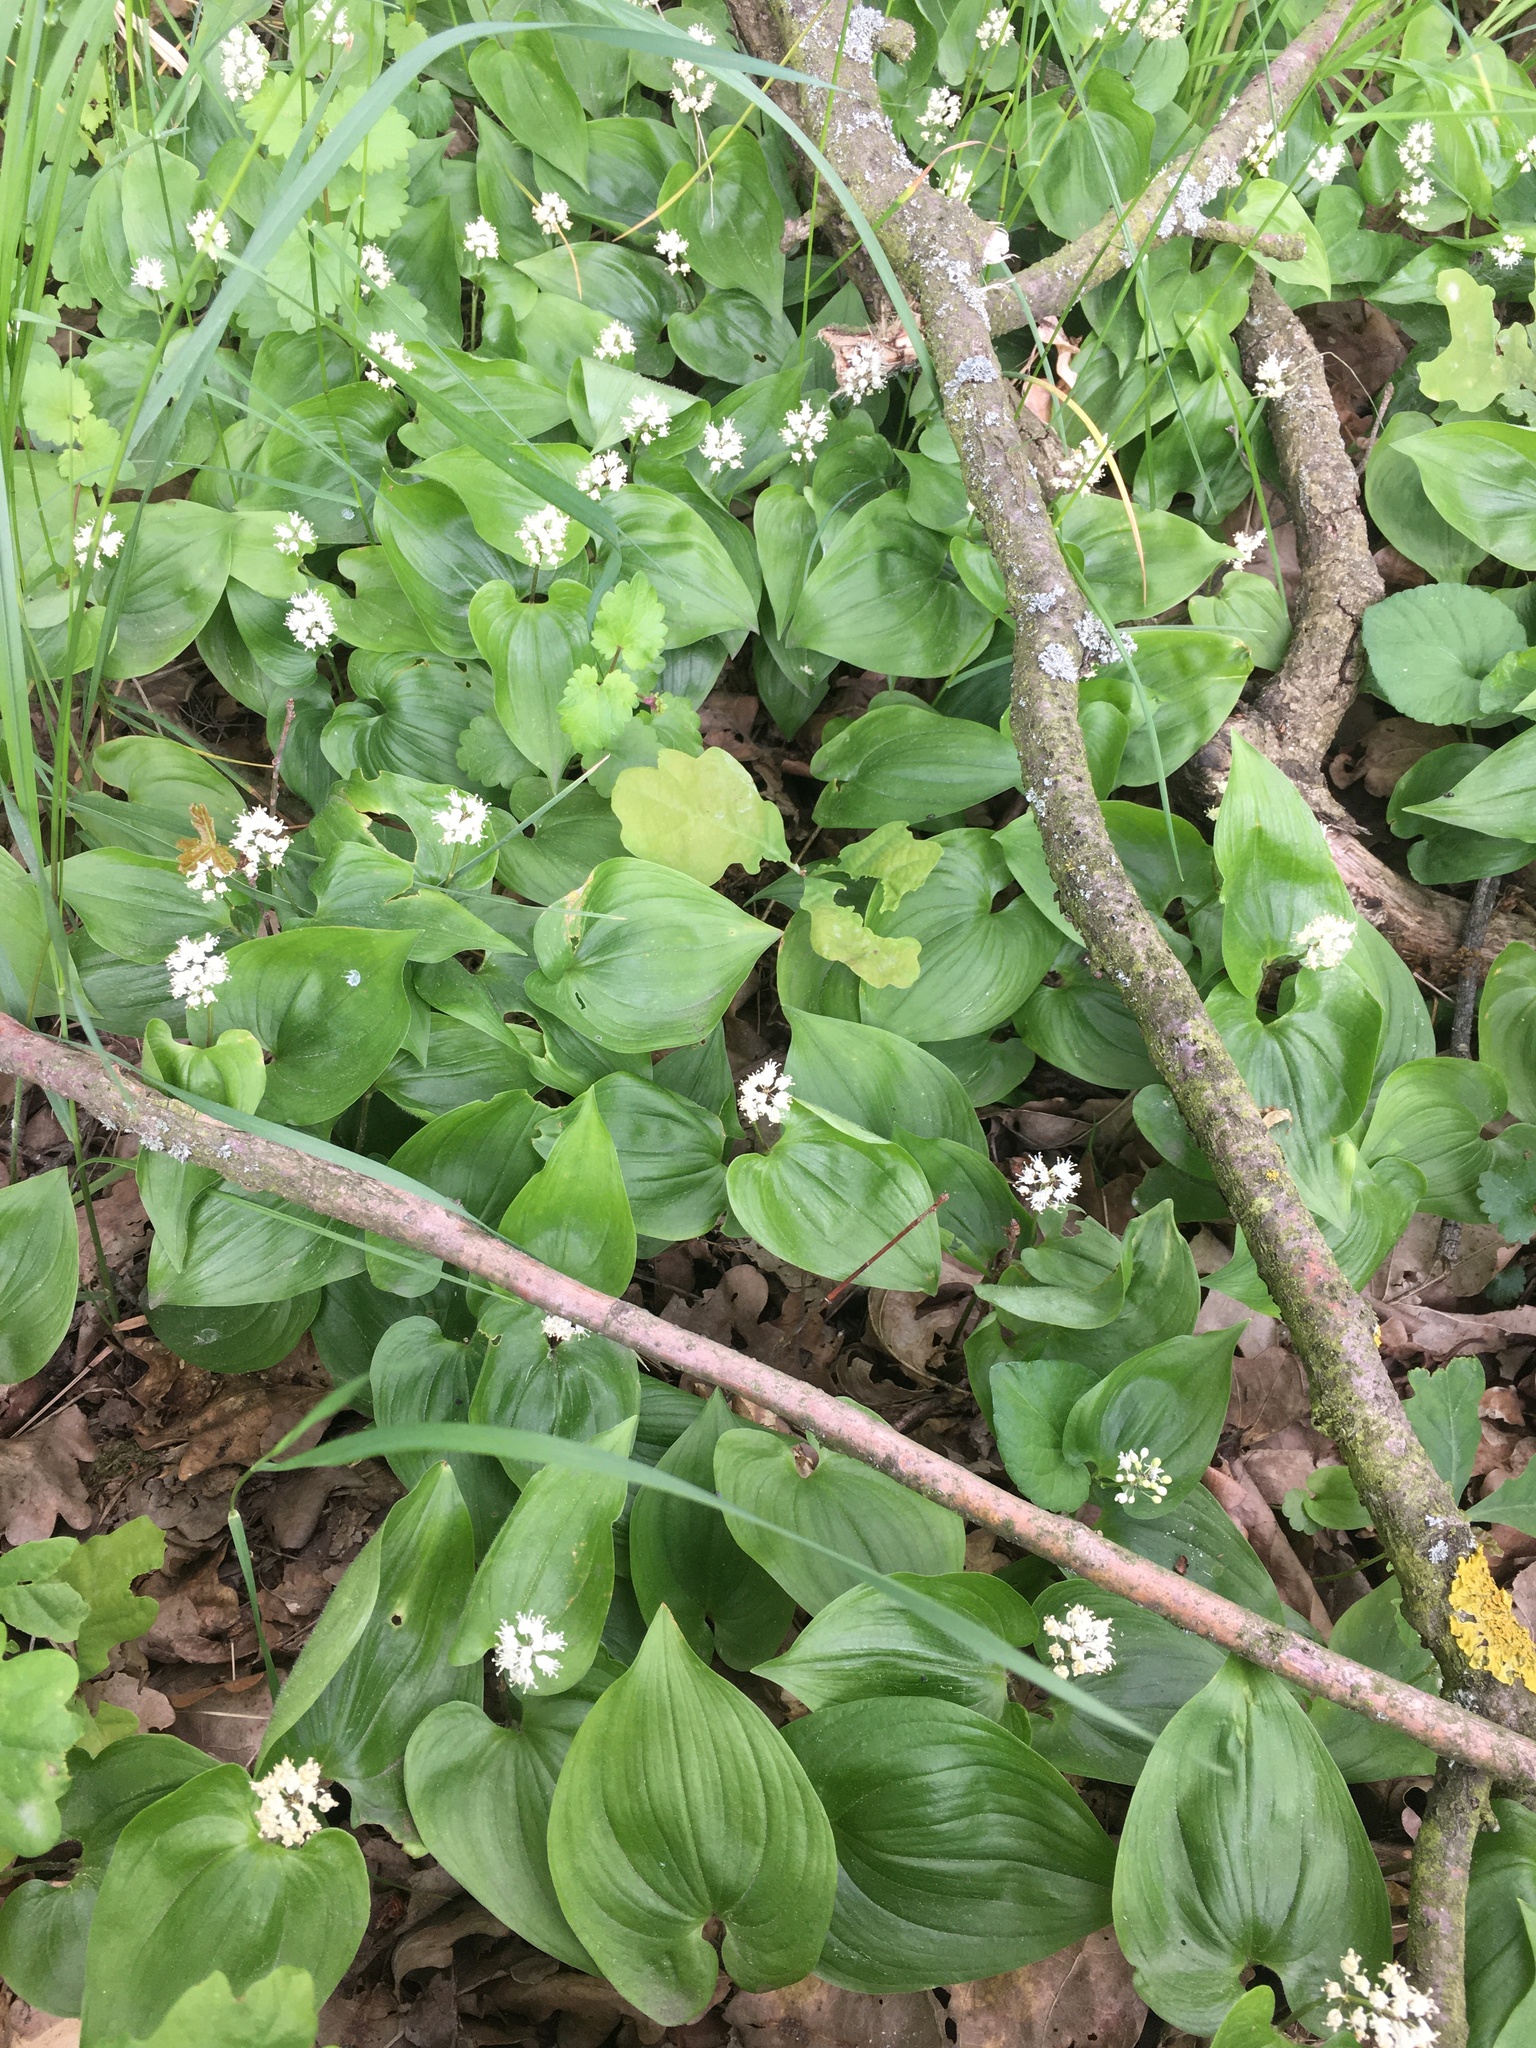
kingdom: Plantae
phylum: Tracheophyta
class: Liliopsida
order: Asparagales
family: Asparagaceae
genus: Maianthemum
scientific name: Maianthemum bifolium
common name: May lily
